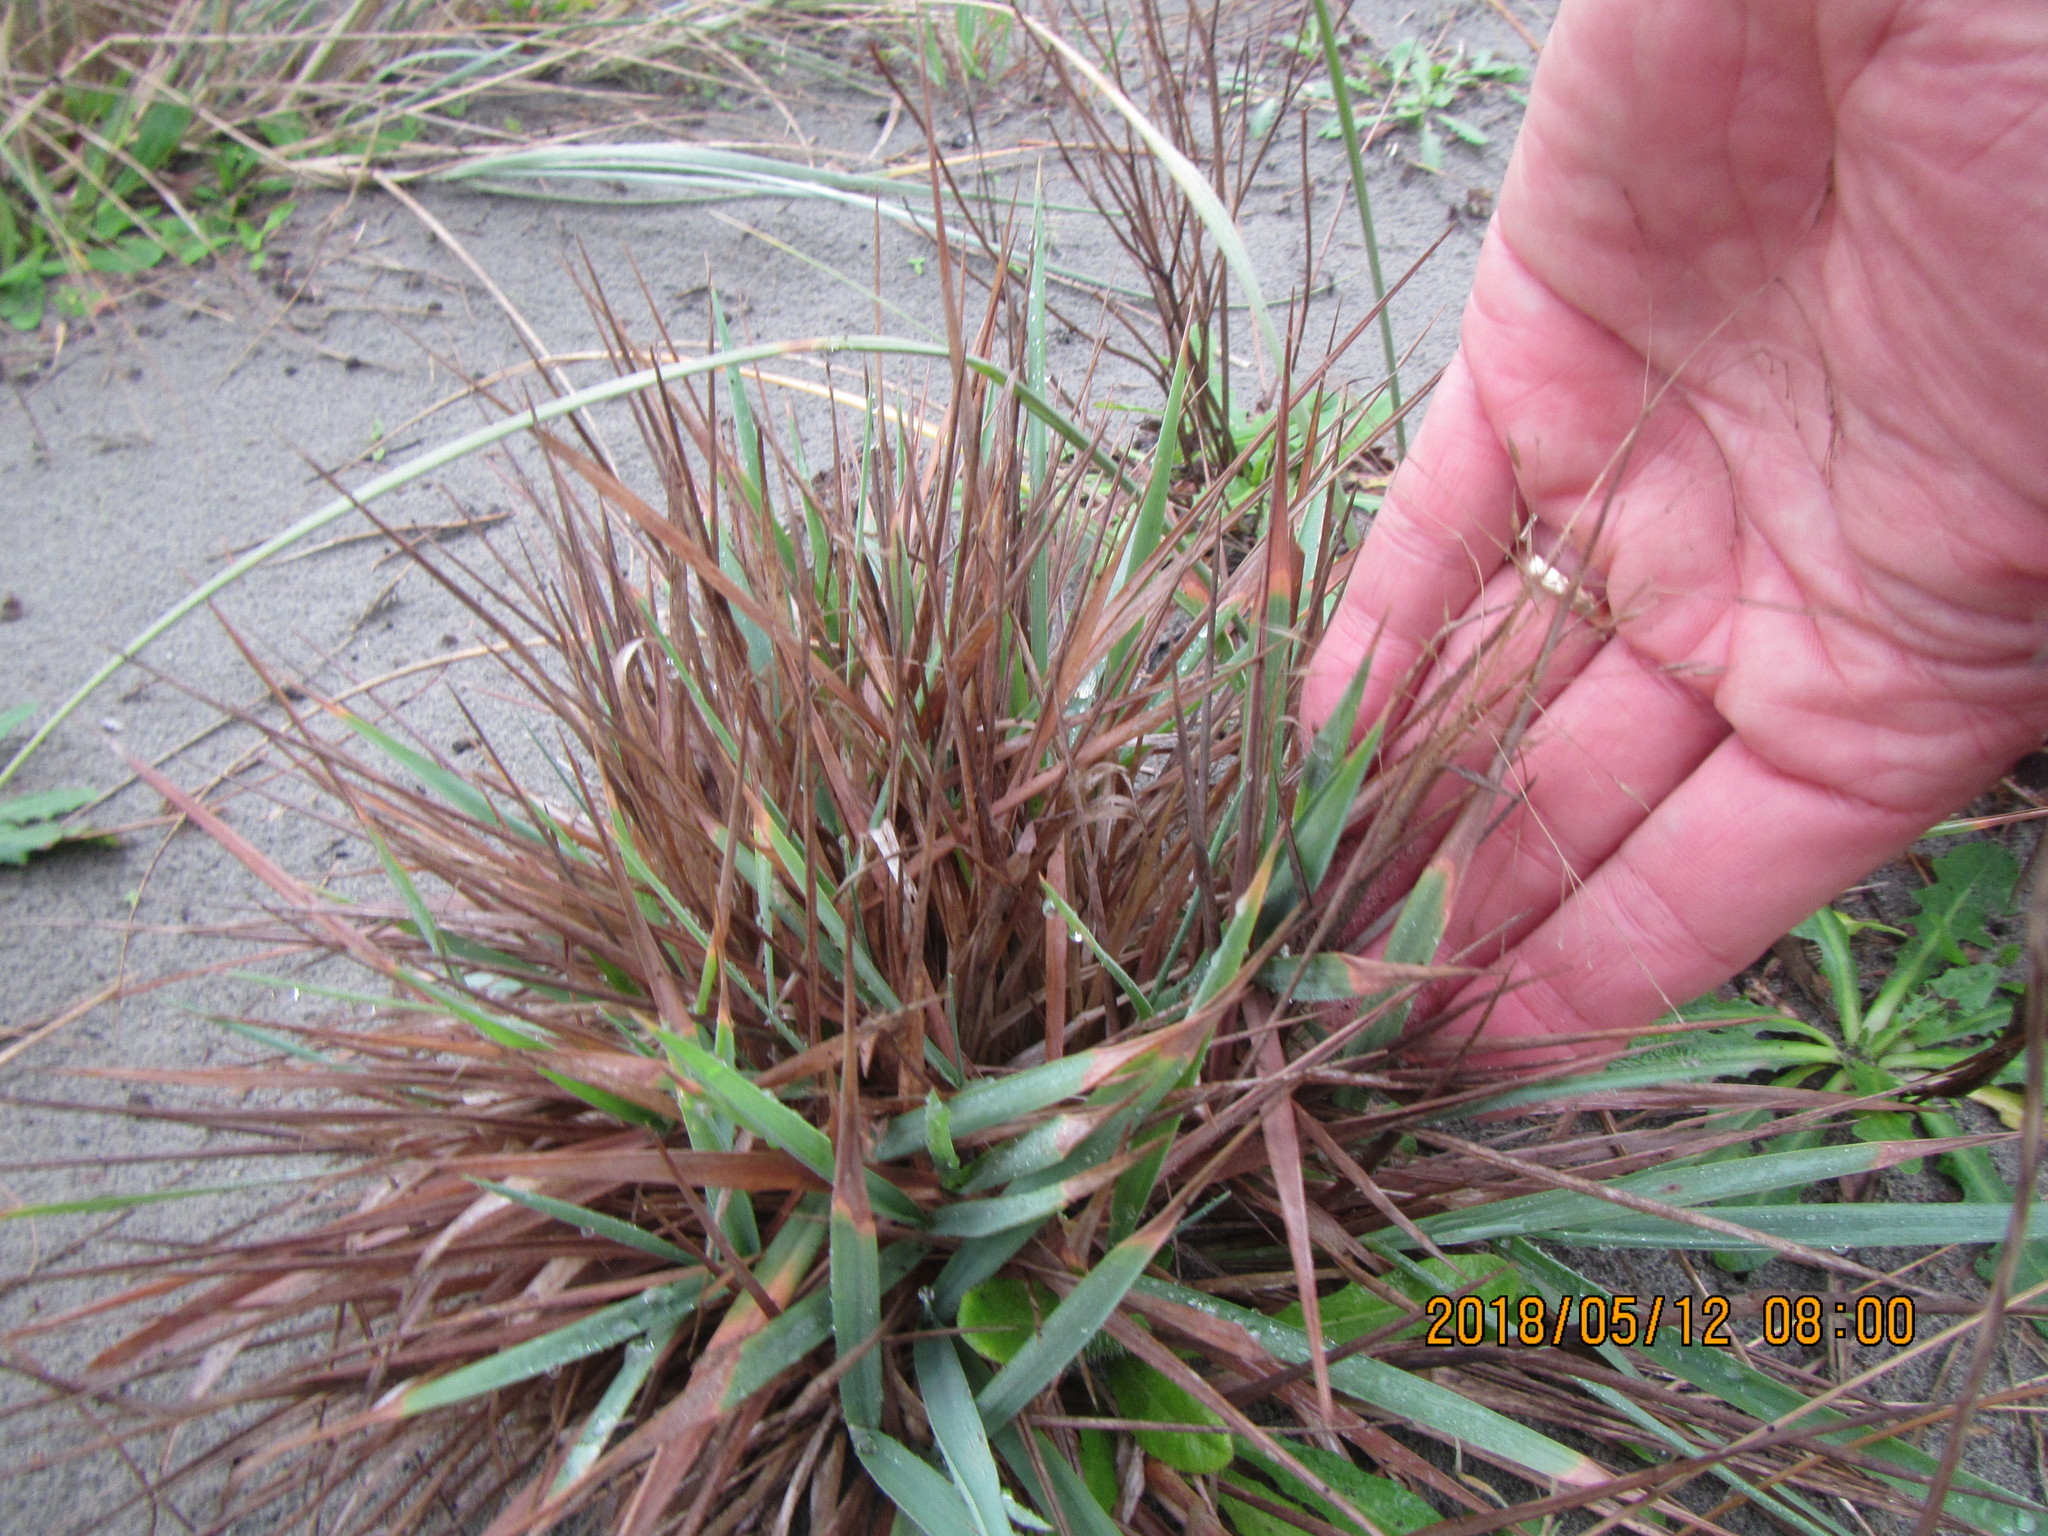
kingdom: Plantae
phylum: Tracheophyta
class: Liliopsida
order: Poales
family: Poaceae
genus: Lachnagrostis
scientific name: Lachnagrostis billardierei
